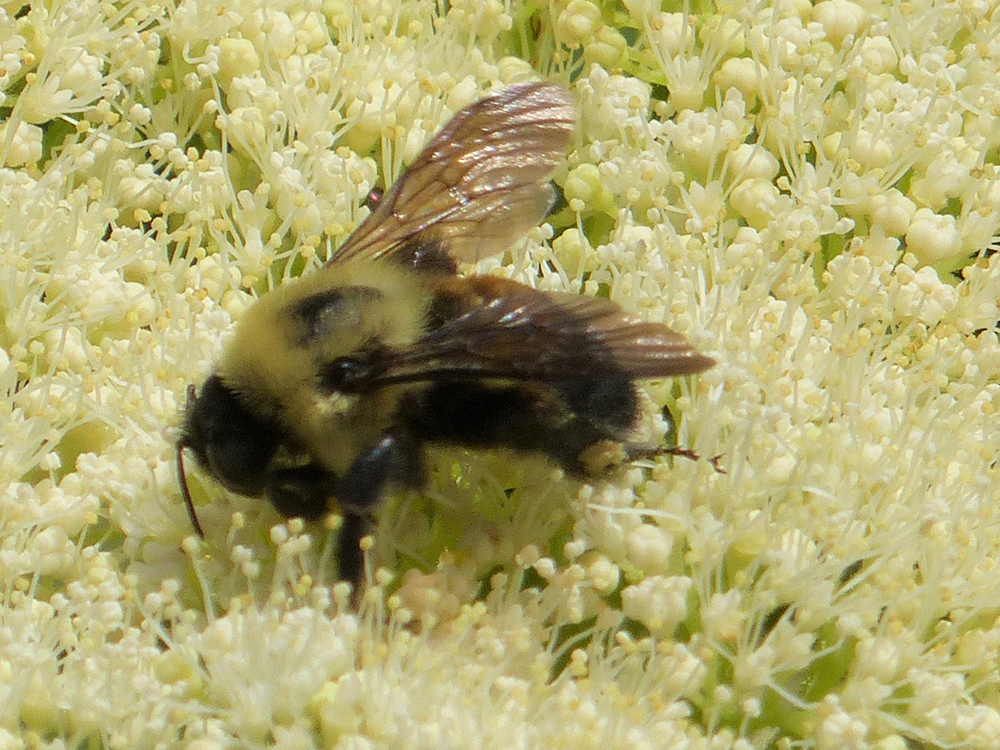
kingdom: Animalia
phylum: Arthropoda
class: Insecta
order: Hymenoptera
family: Apidae
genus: Bombus
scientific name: Bombus griseocollis
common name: Brown-belted bumble bee
